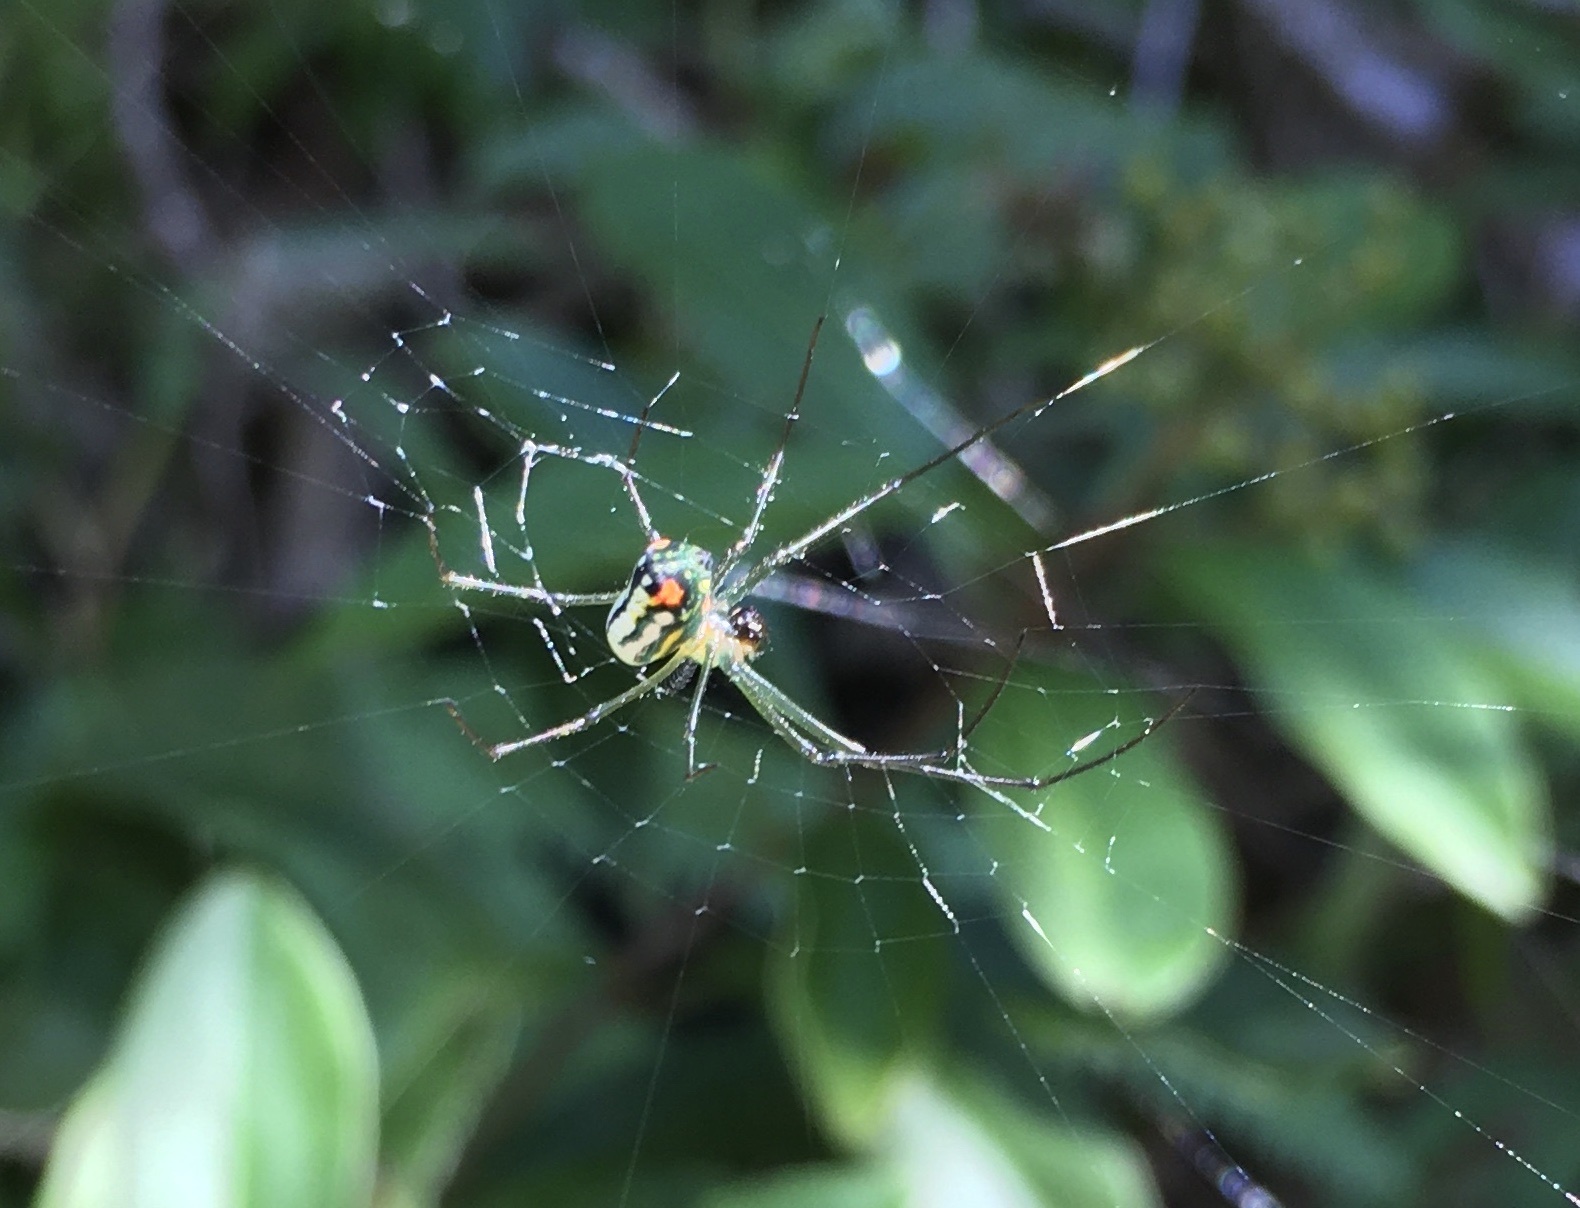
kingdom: Animalia
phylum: Arthropoda
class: Arachnida
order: Araneae
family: Tetragnathidae
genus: Leucauge
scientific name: Leucauge argyrobapta
